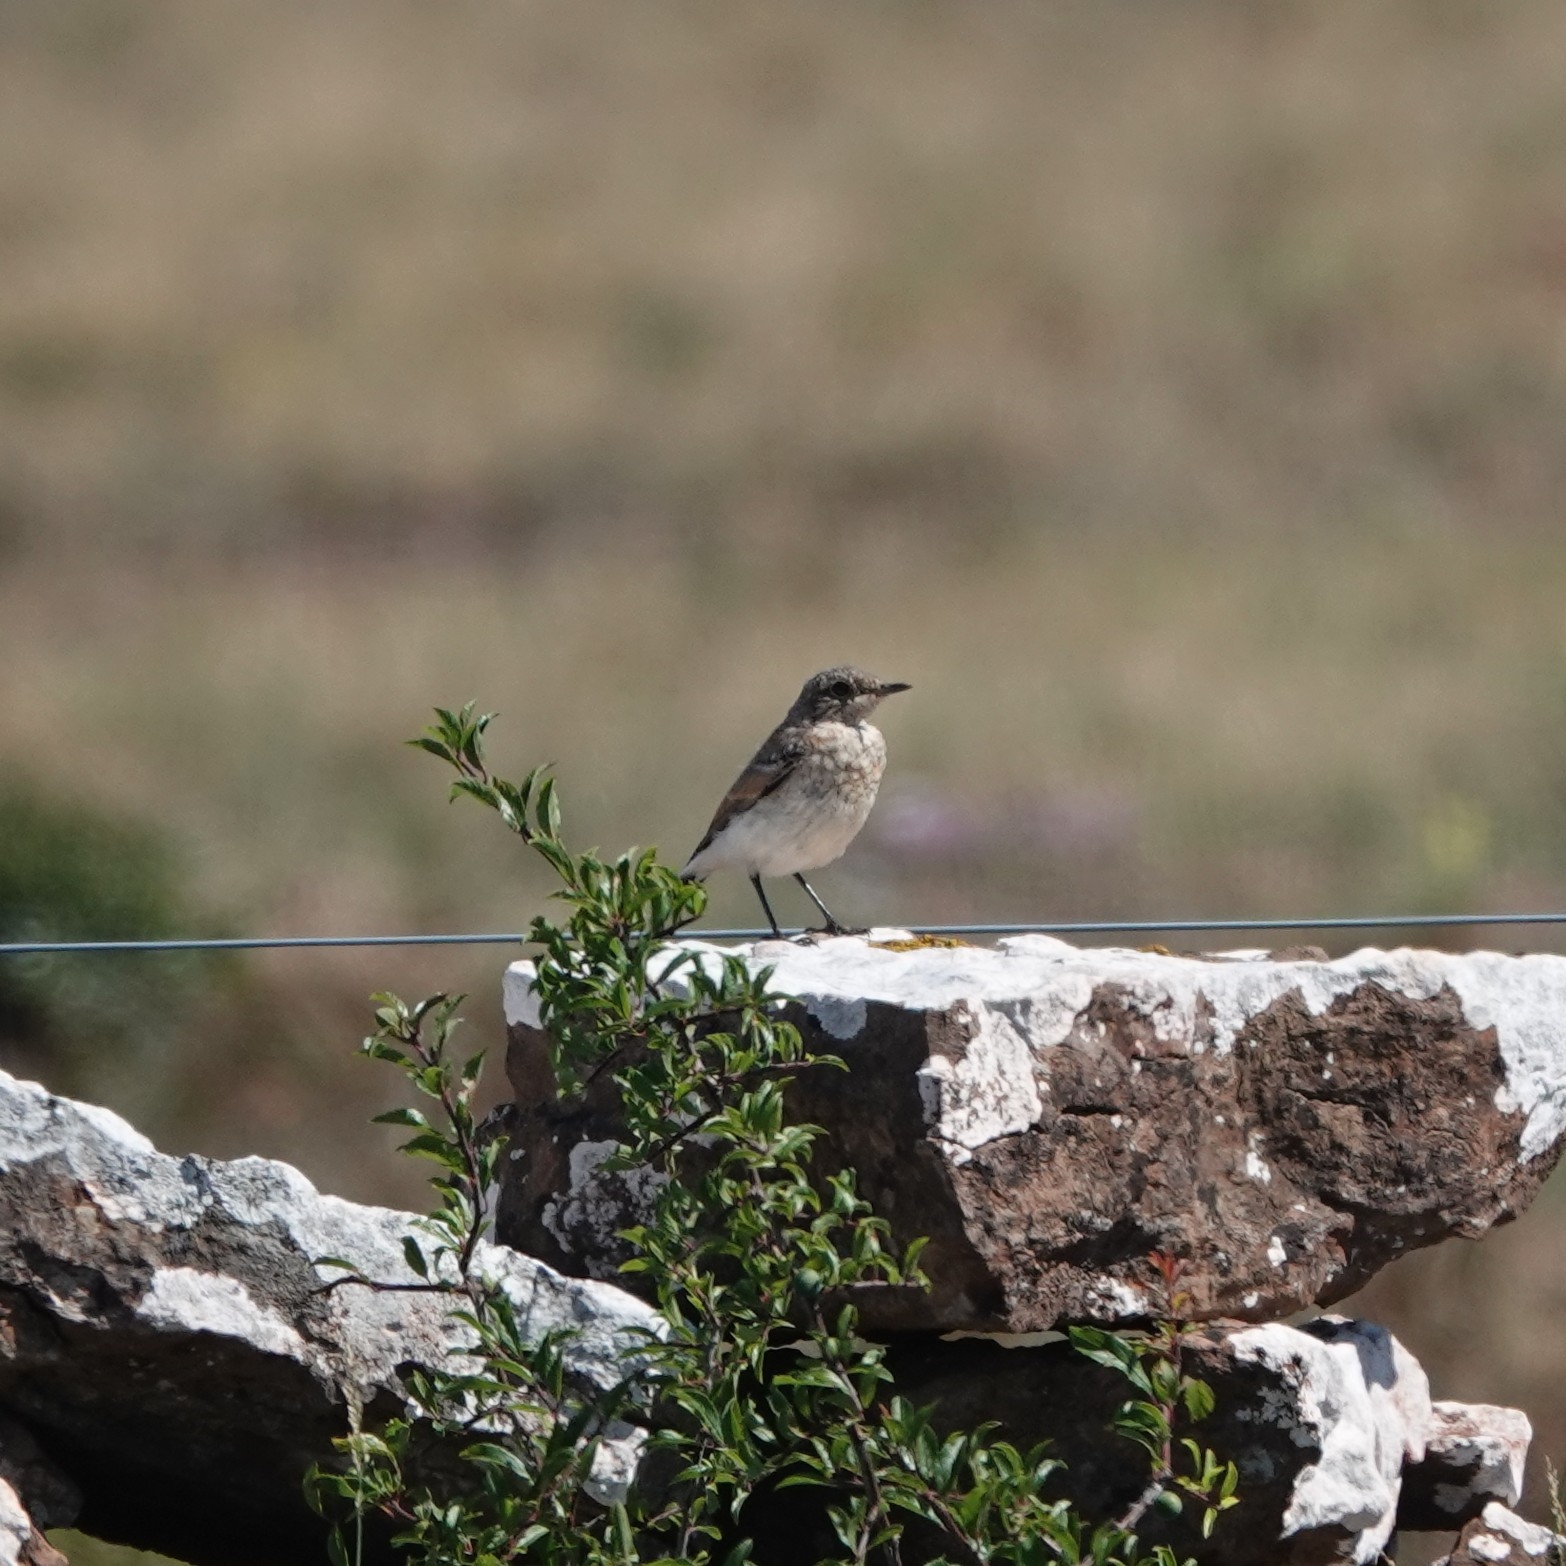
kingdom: Animalia
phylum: Chordata
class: Aves
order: Passeriformes
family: Muscicapidae
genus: Oenanthe
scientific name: Oenanthe oenanthe
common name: Northern wheatear
